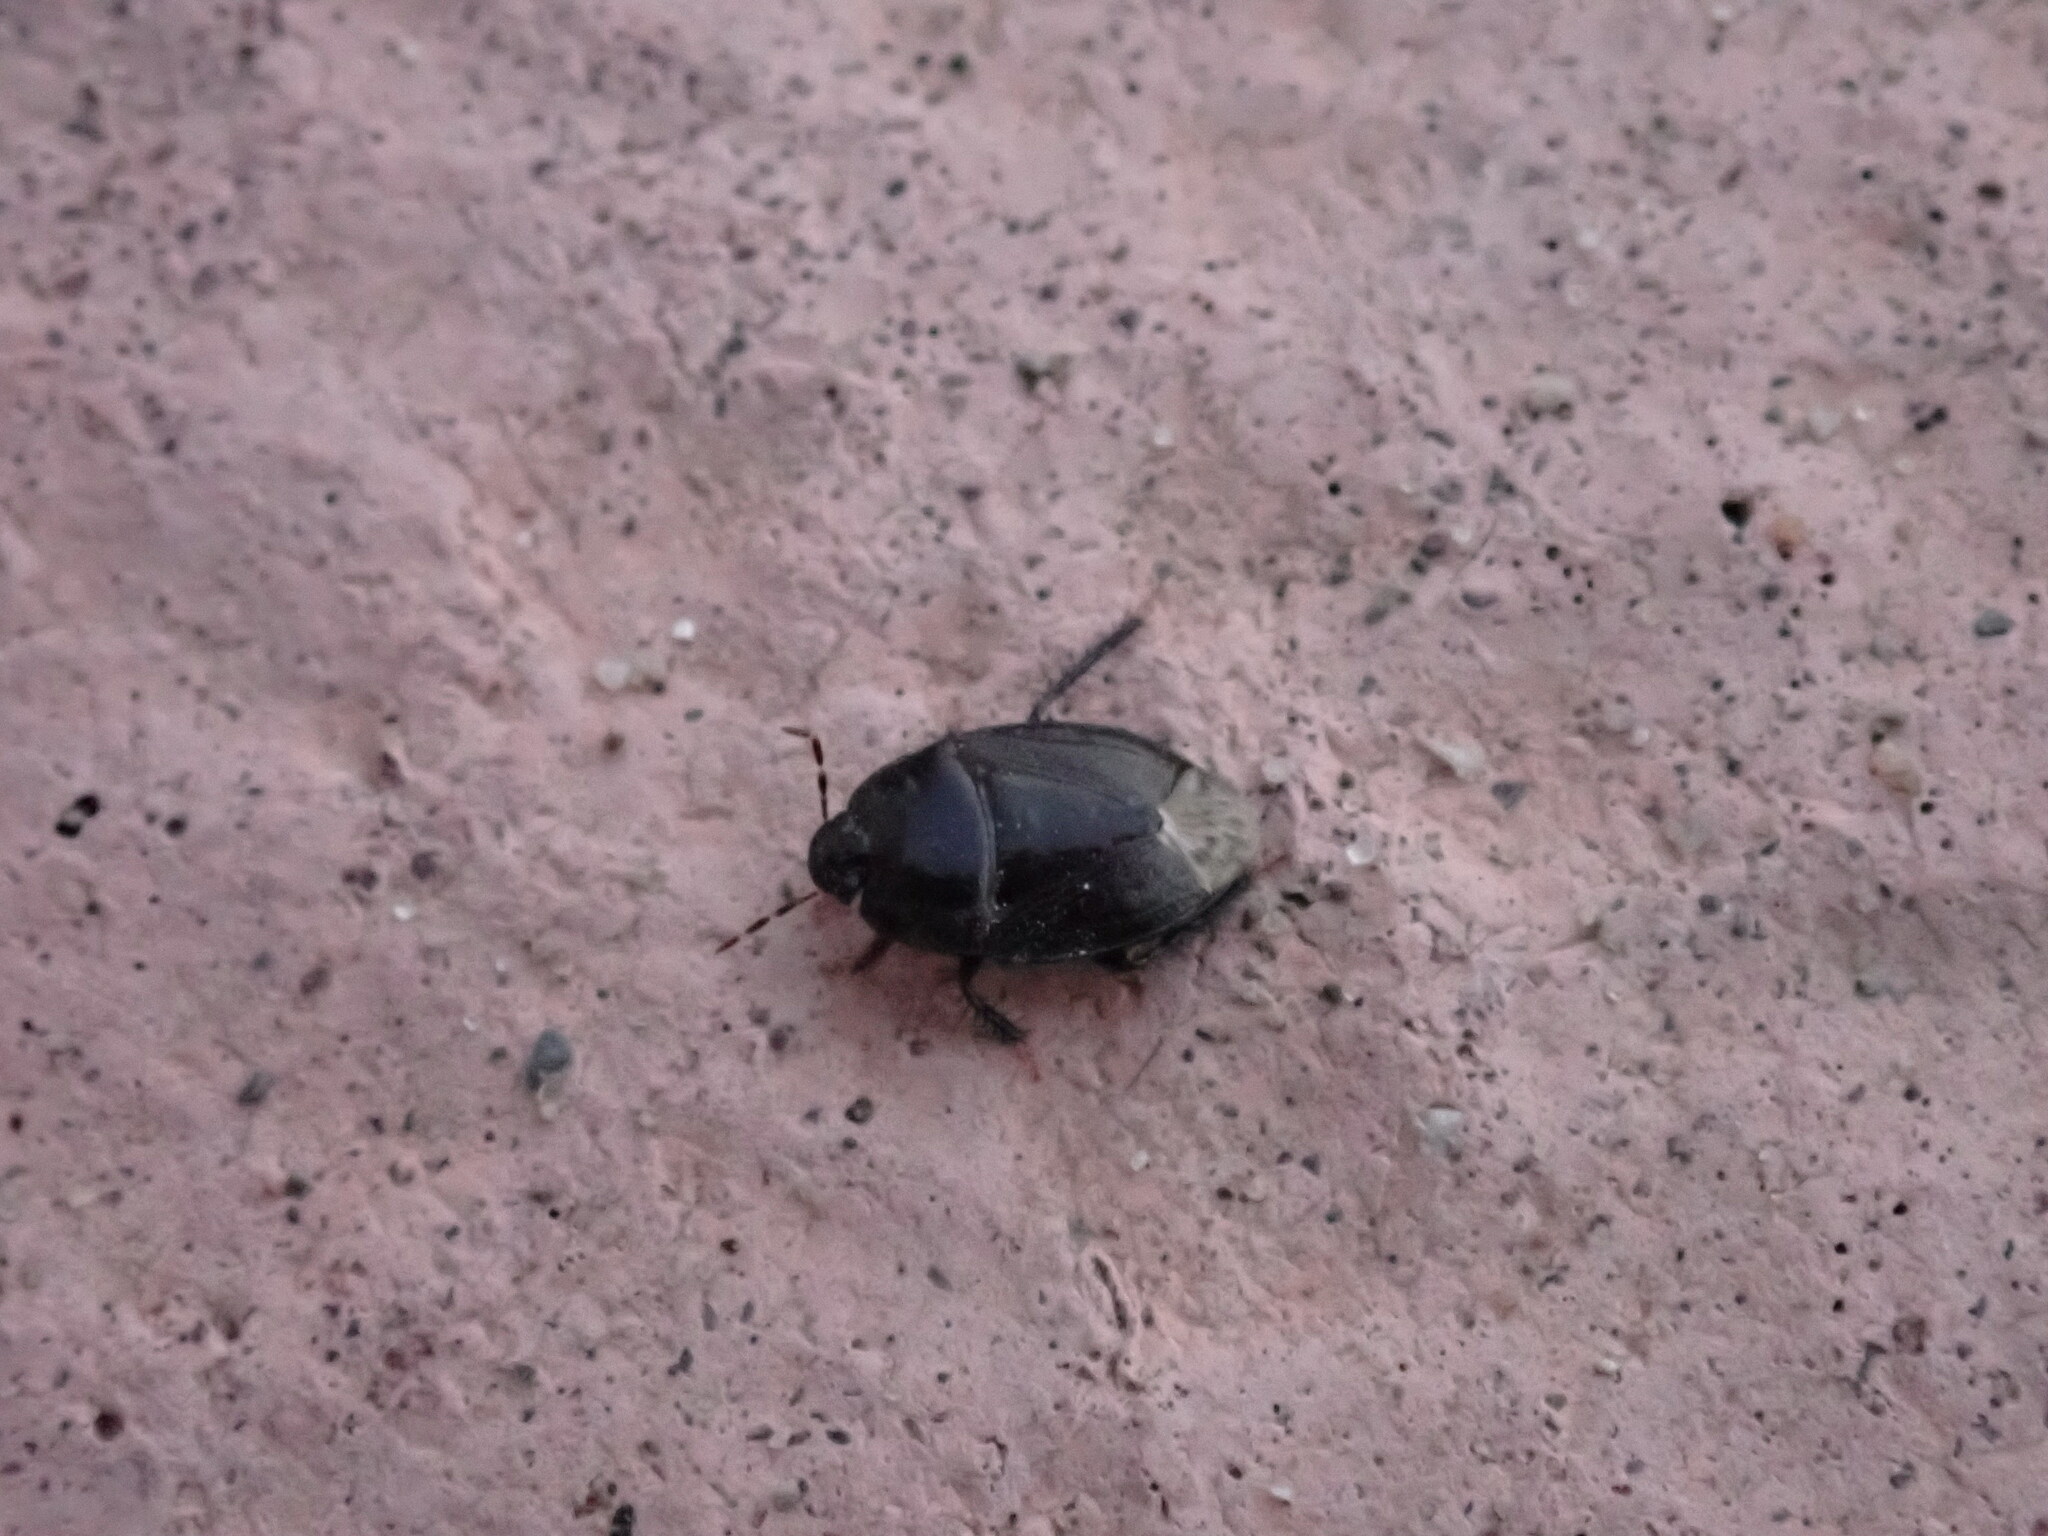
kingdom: Animalia
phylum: Arthropoda
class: Insecta
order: Hemiptera
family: Cydnidae
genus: Macroscytus
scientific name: Macroscytus brunneus
